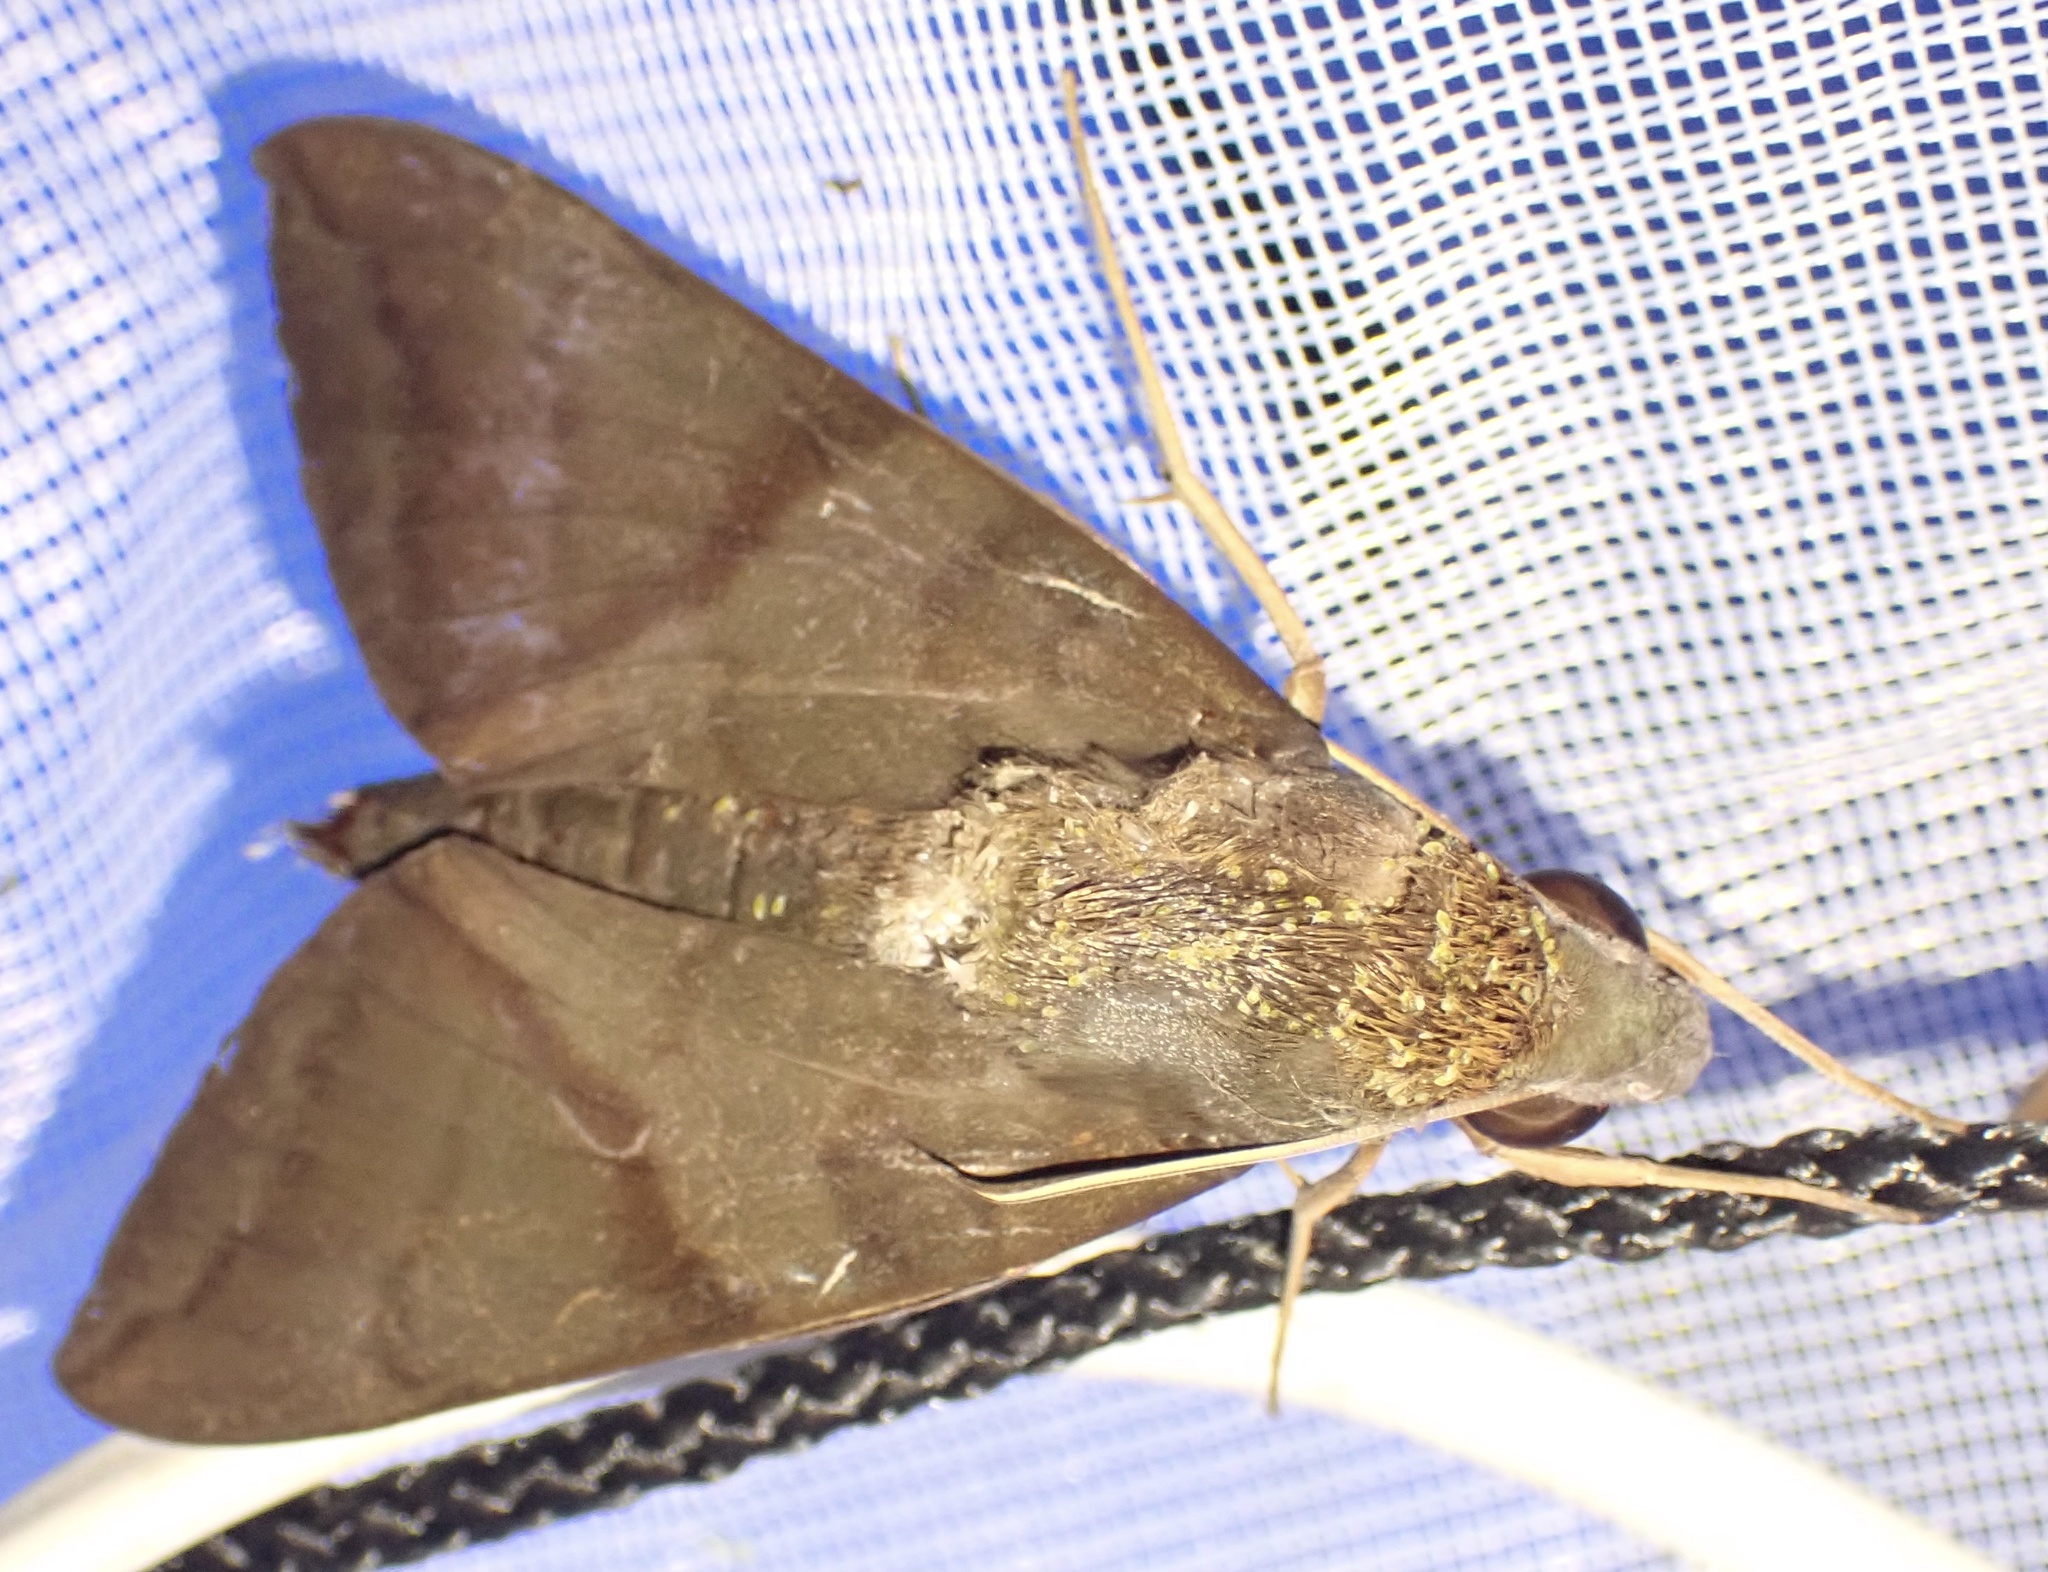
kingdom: Animalia
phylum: Arthropoda
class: Insecta
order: Lepidoptera
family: Sphingidae
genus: Nephele
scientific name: Nephele aequivalens
